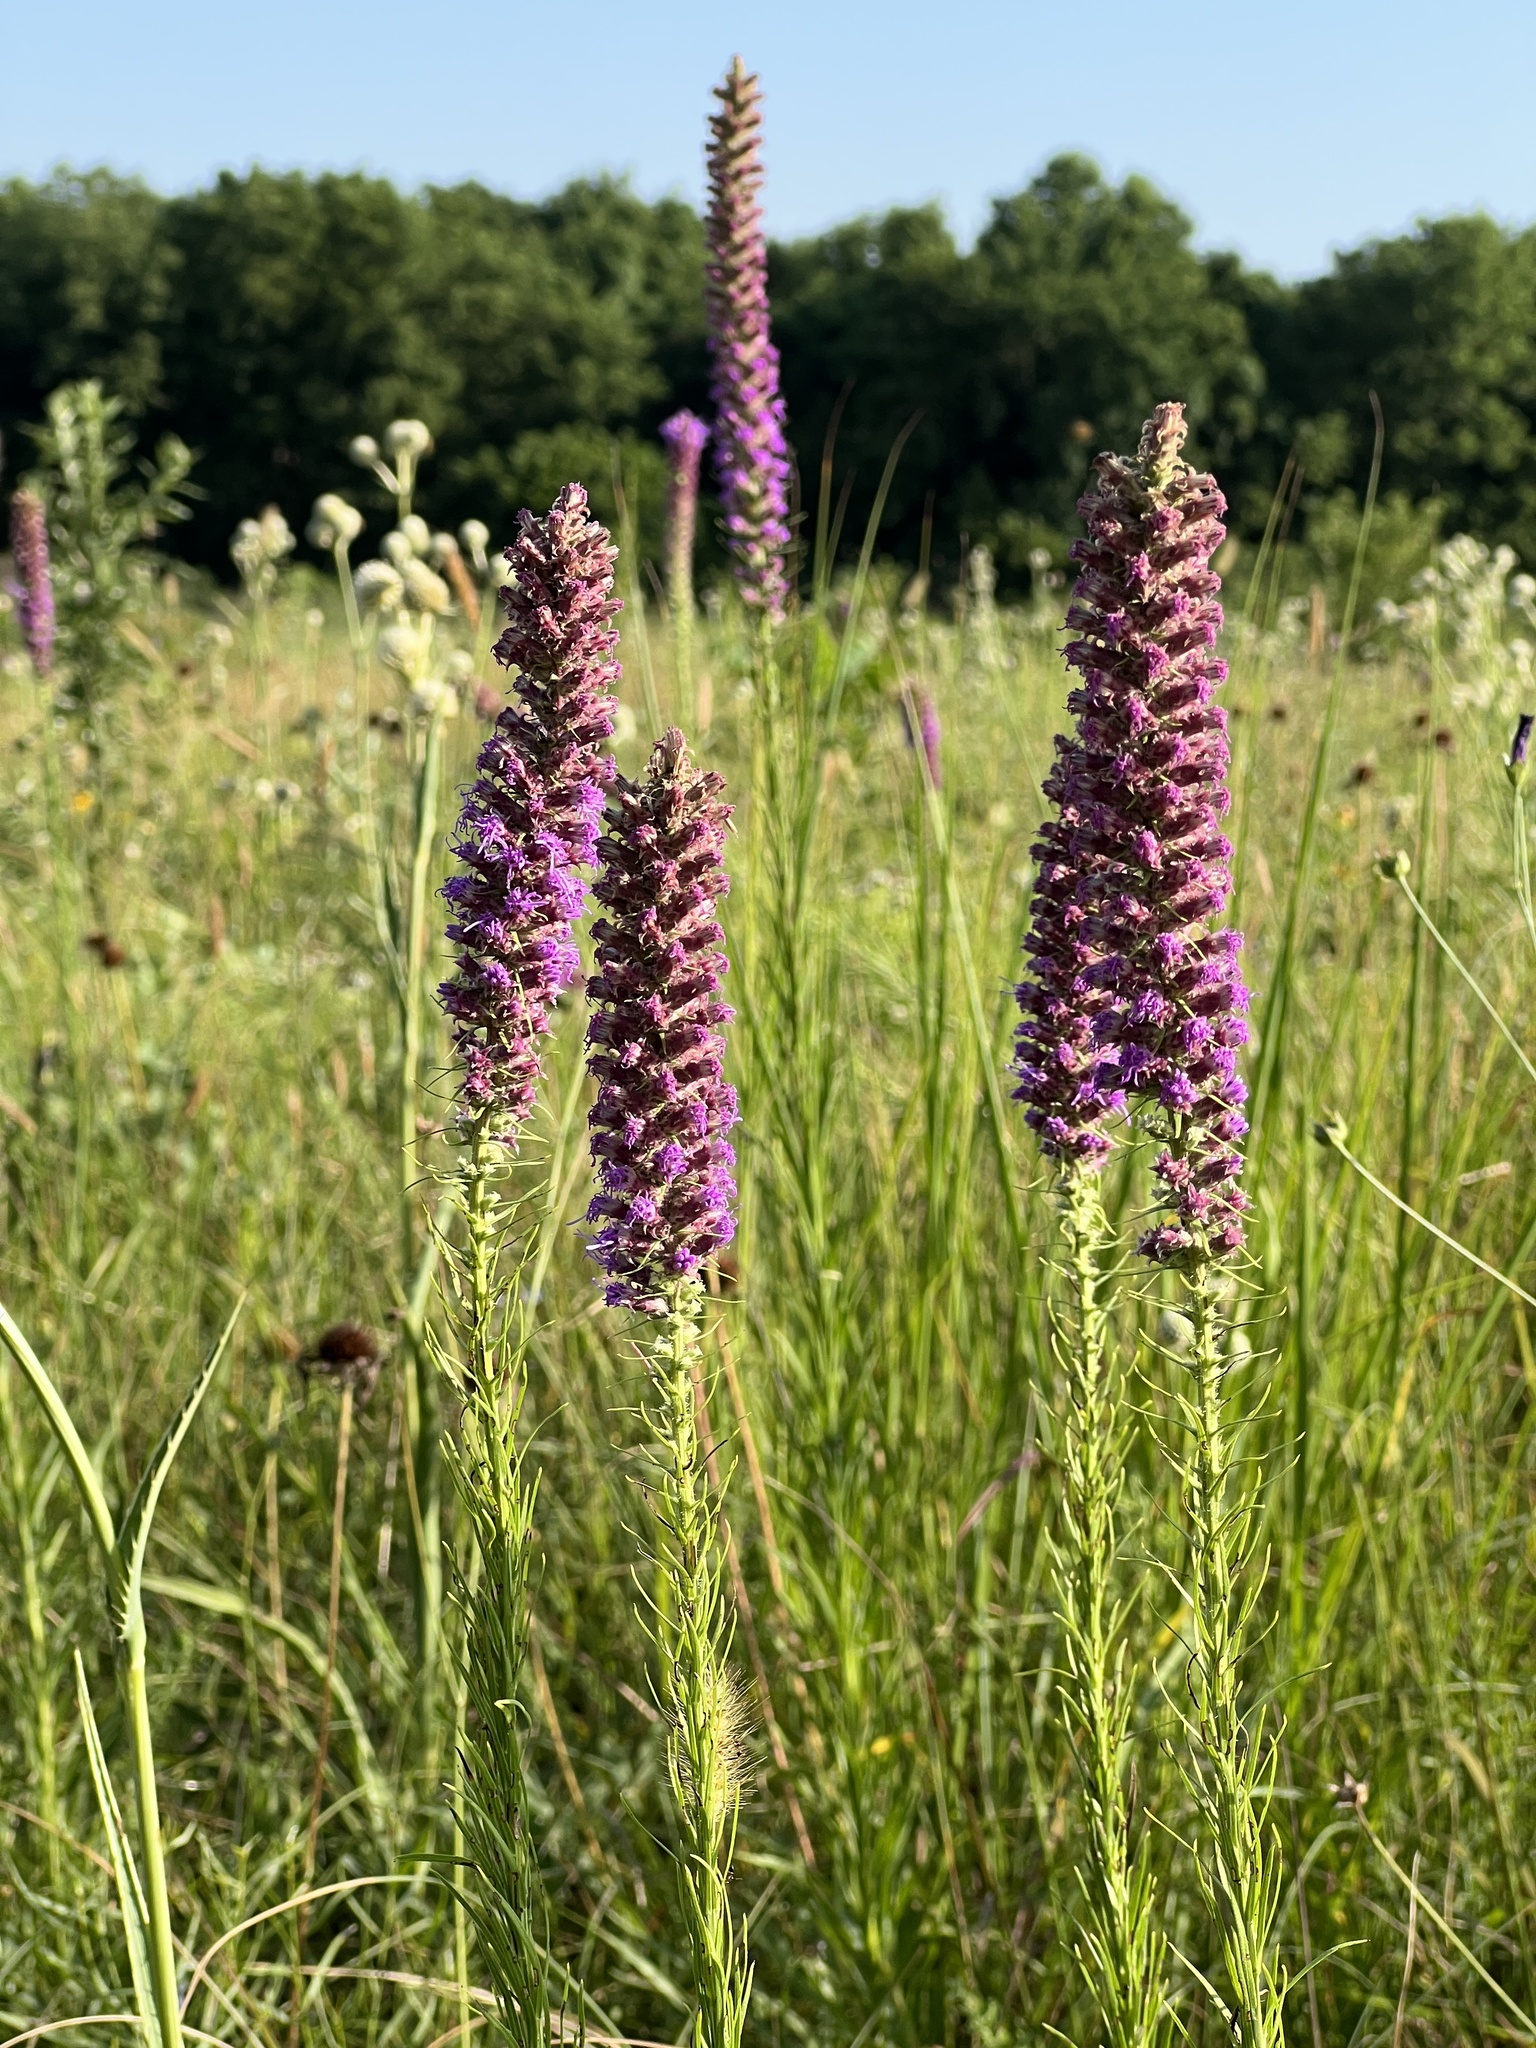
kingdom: Plantae
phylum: Tracheophyta
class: Magnoliopsida
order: Asterales
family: Asteraceae
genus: Liatris
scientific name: Liatris pycnostachya
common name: Cattail gayfeather
